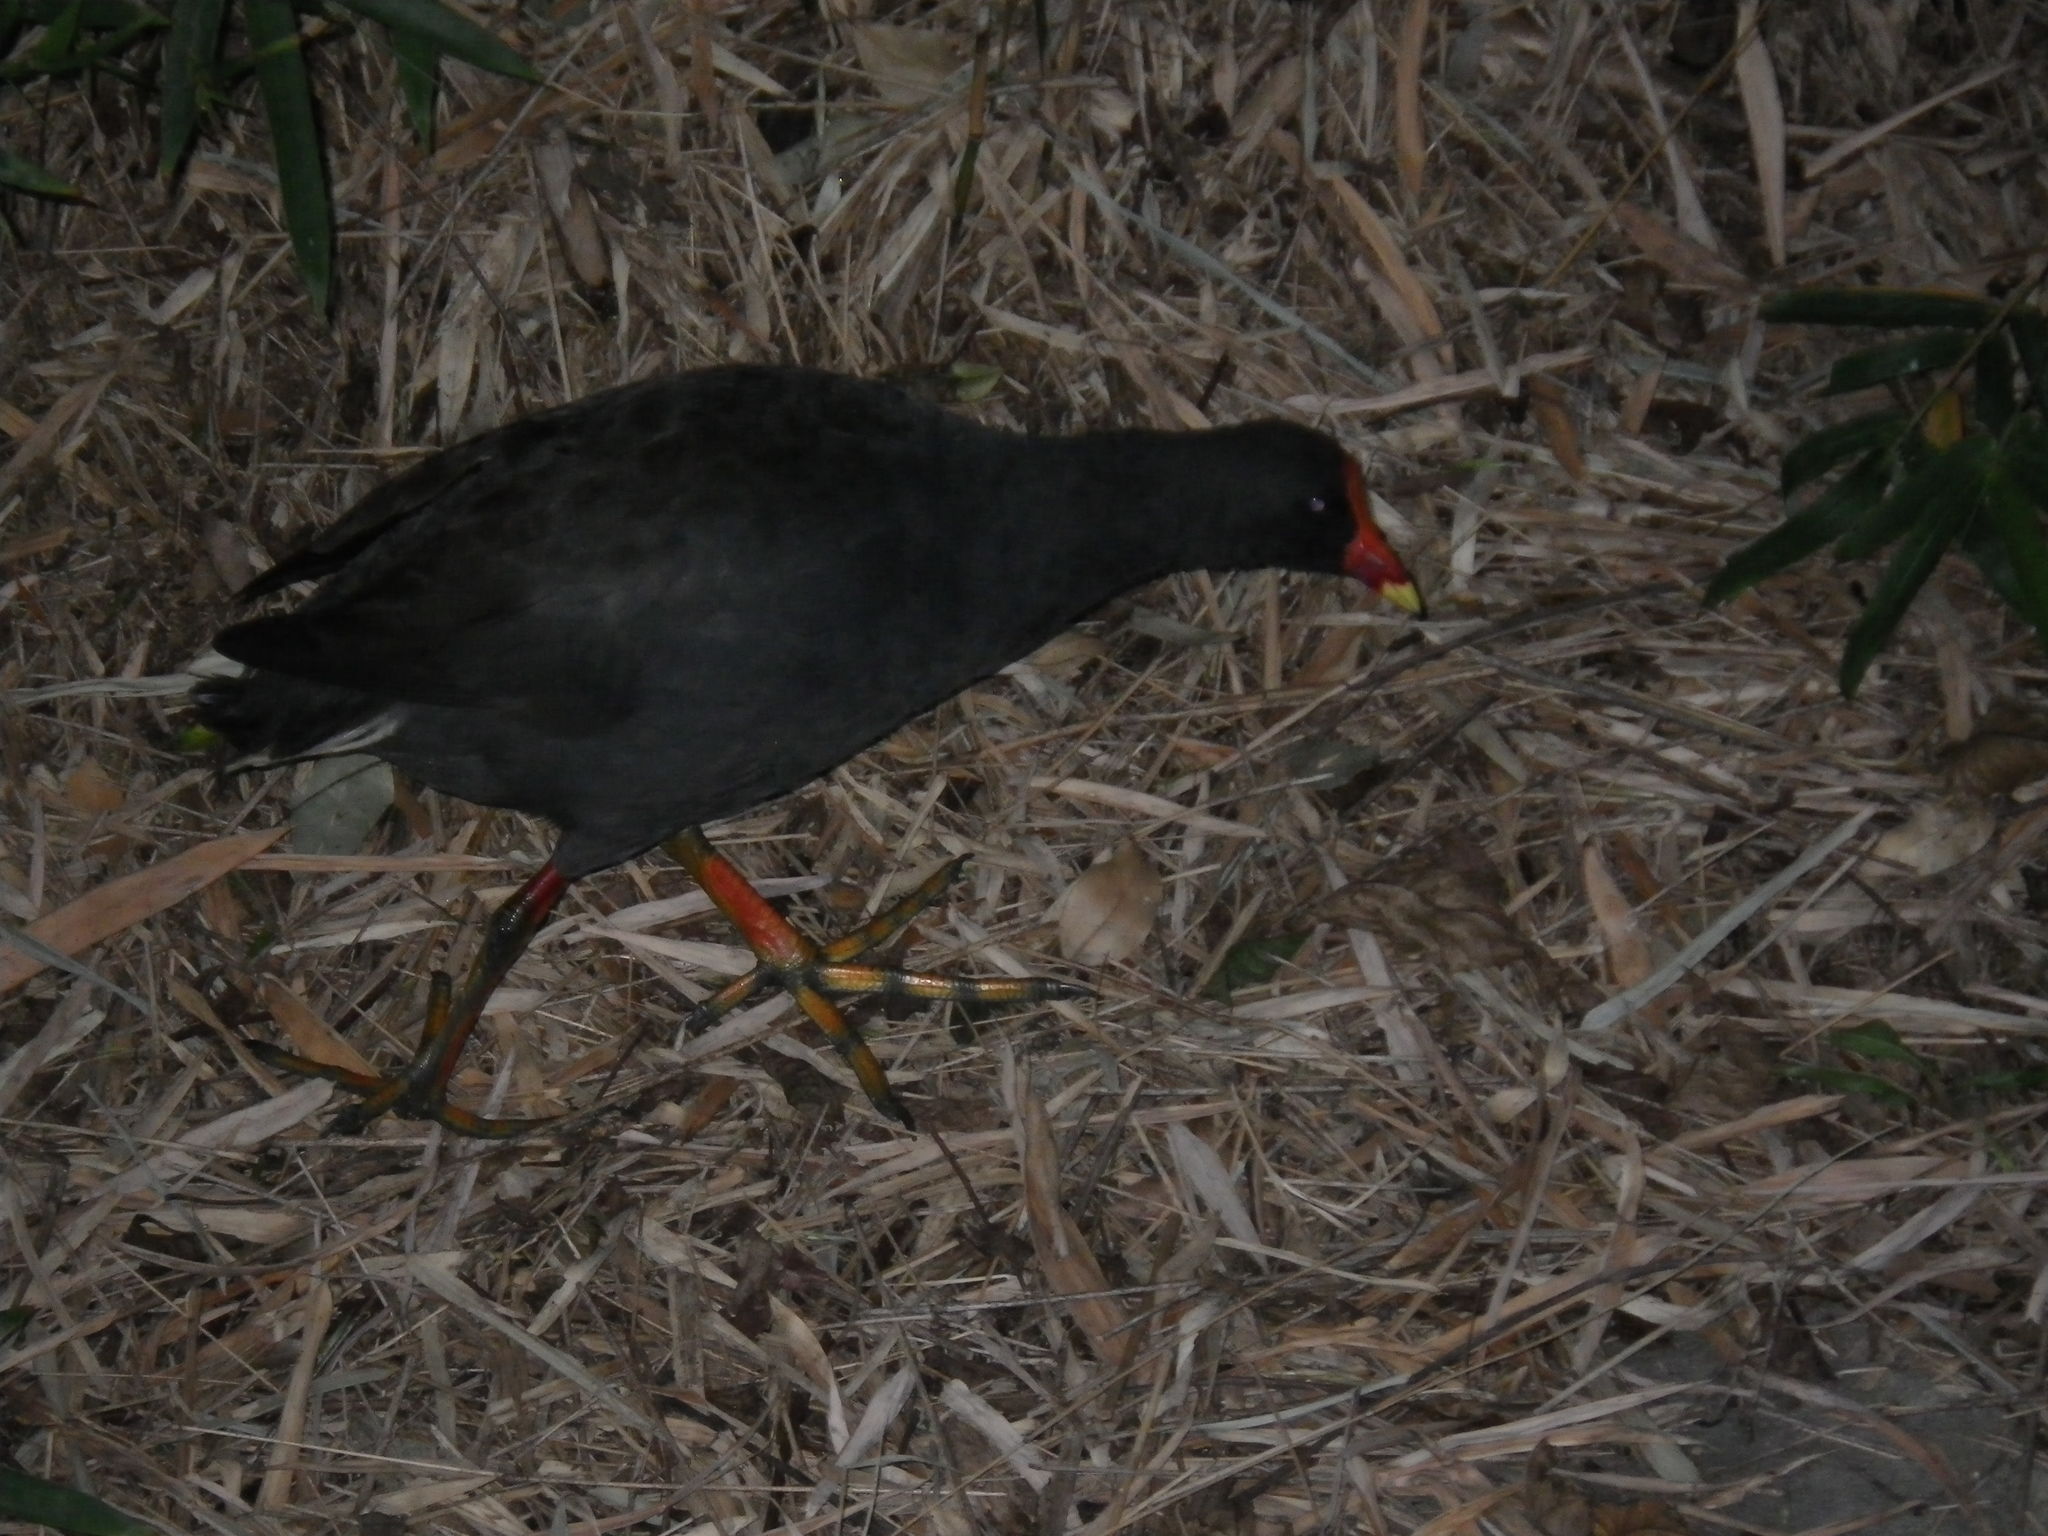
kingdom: Animalia
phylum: Chordata
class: Aves
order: Gruiformes
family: Rallidae
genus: Gallinula
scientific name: Gallinula tenebrosa
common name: Dusky moorhen
